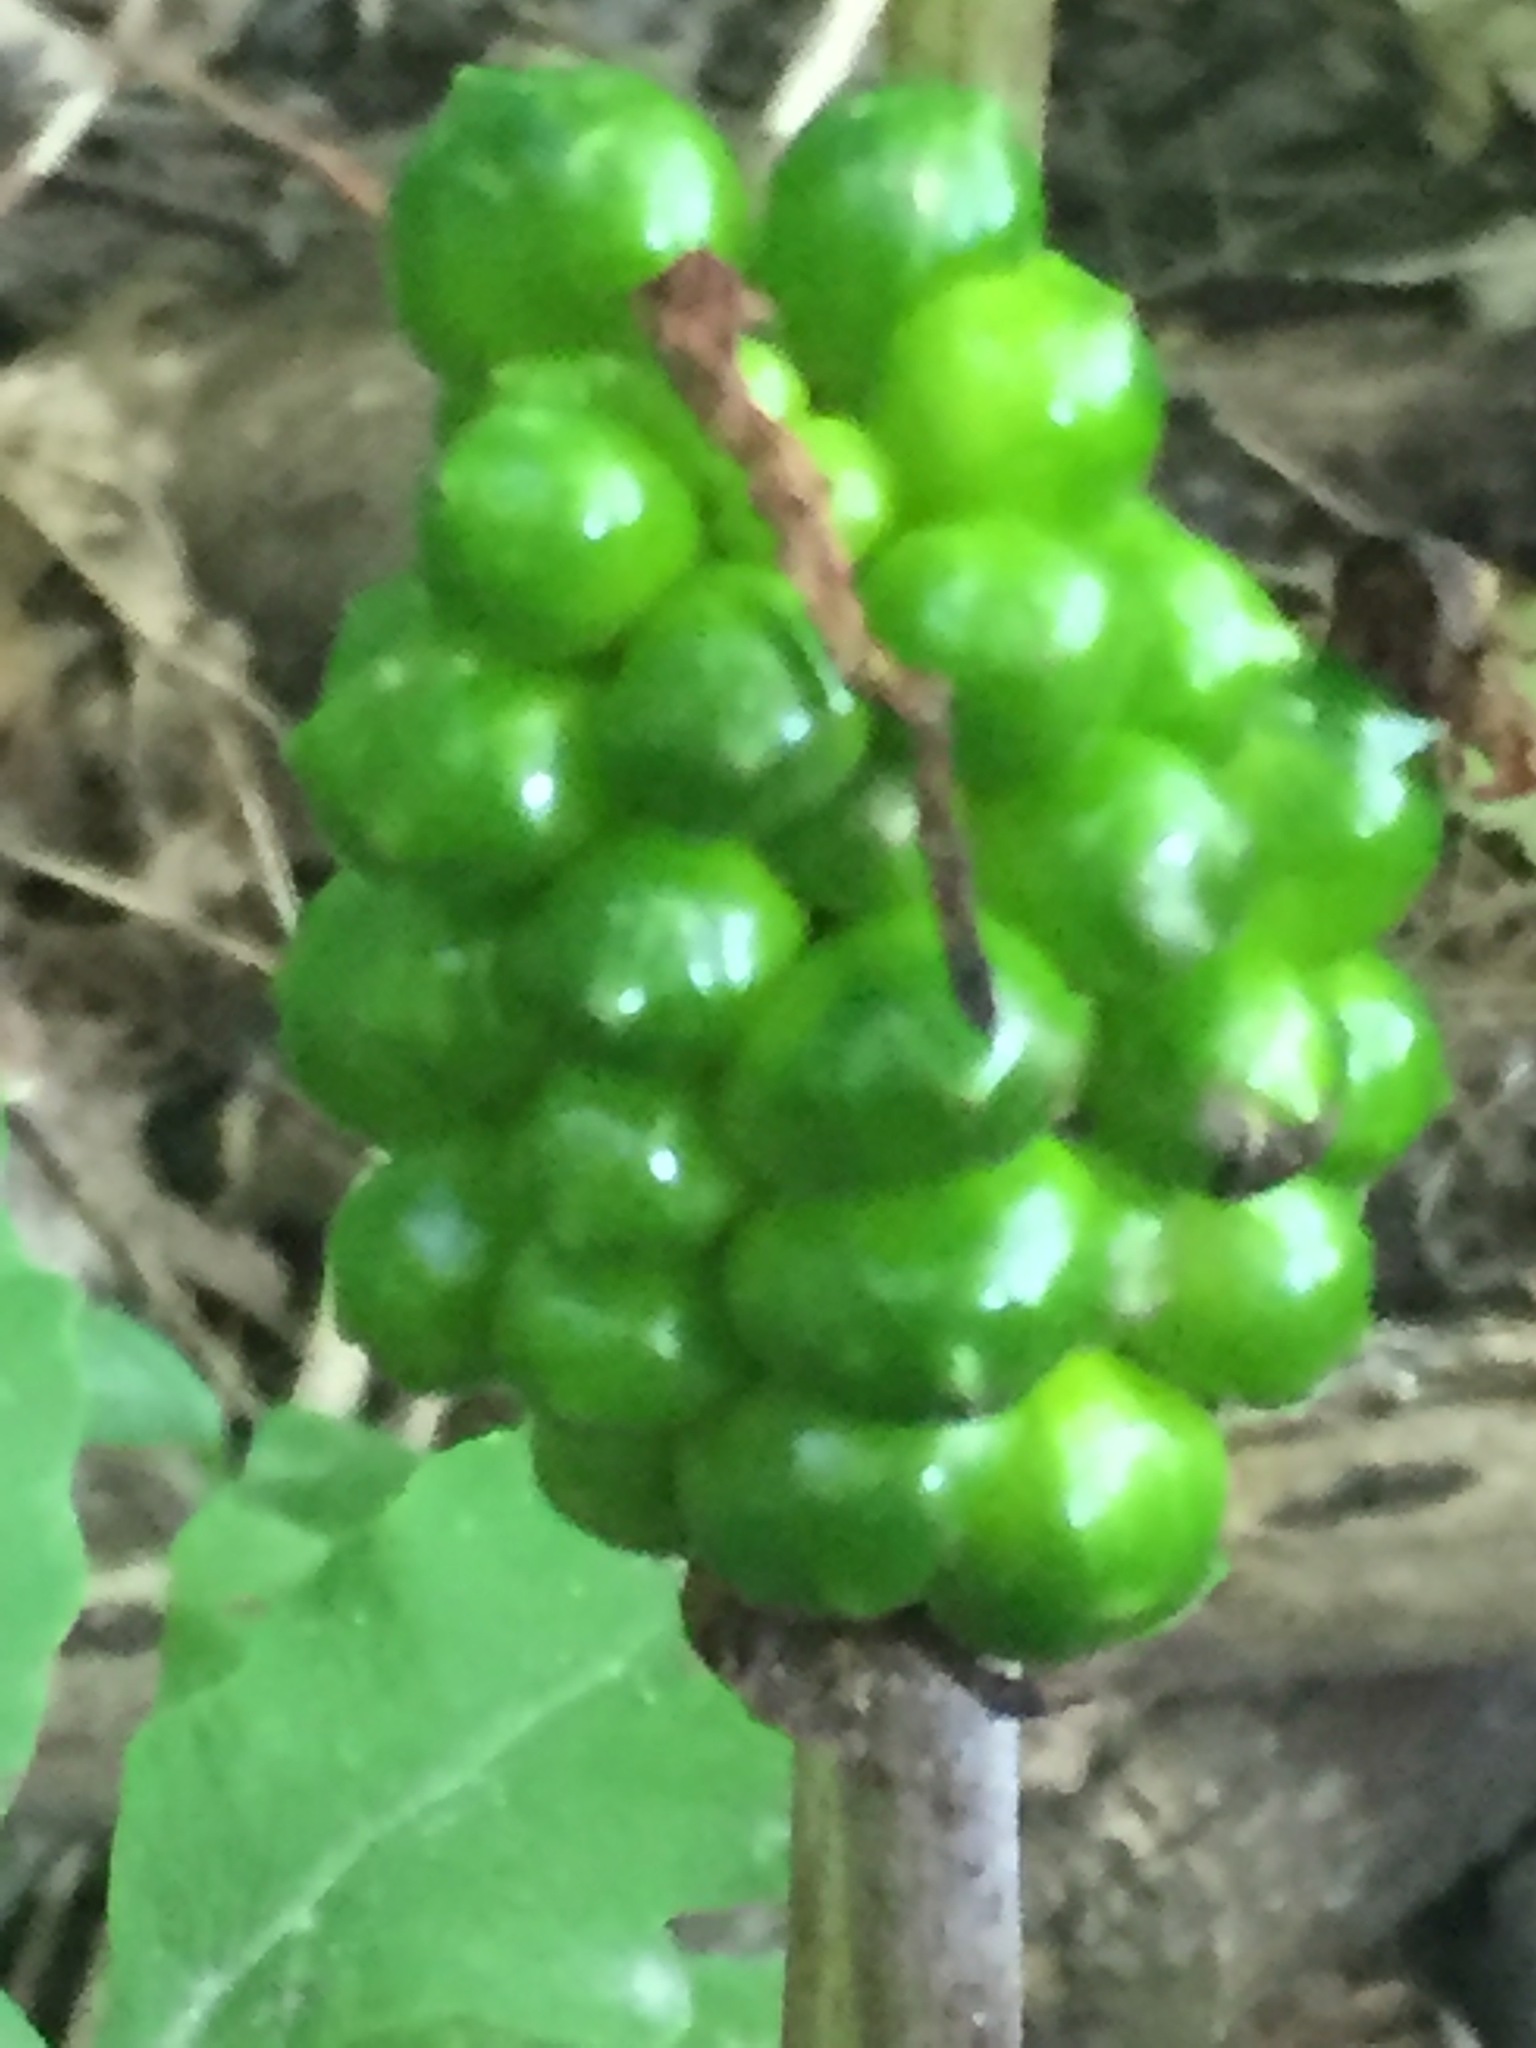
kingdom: Plantae
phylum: Tracheophyta
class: Liliopsida
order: Alismatales
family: Araceae
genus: Arisaema
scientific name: Arisaema triphyllum
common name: Jack-in-the-pulpit
